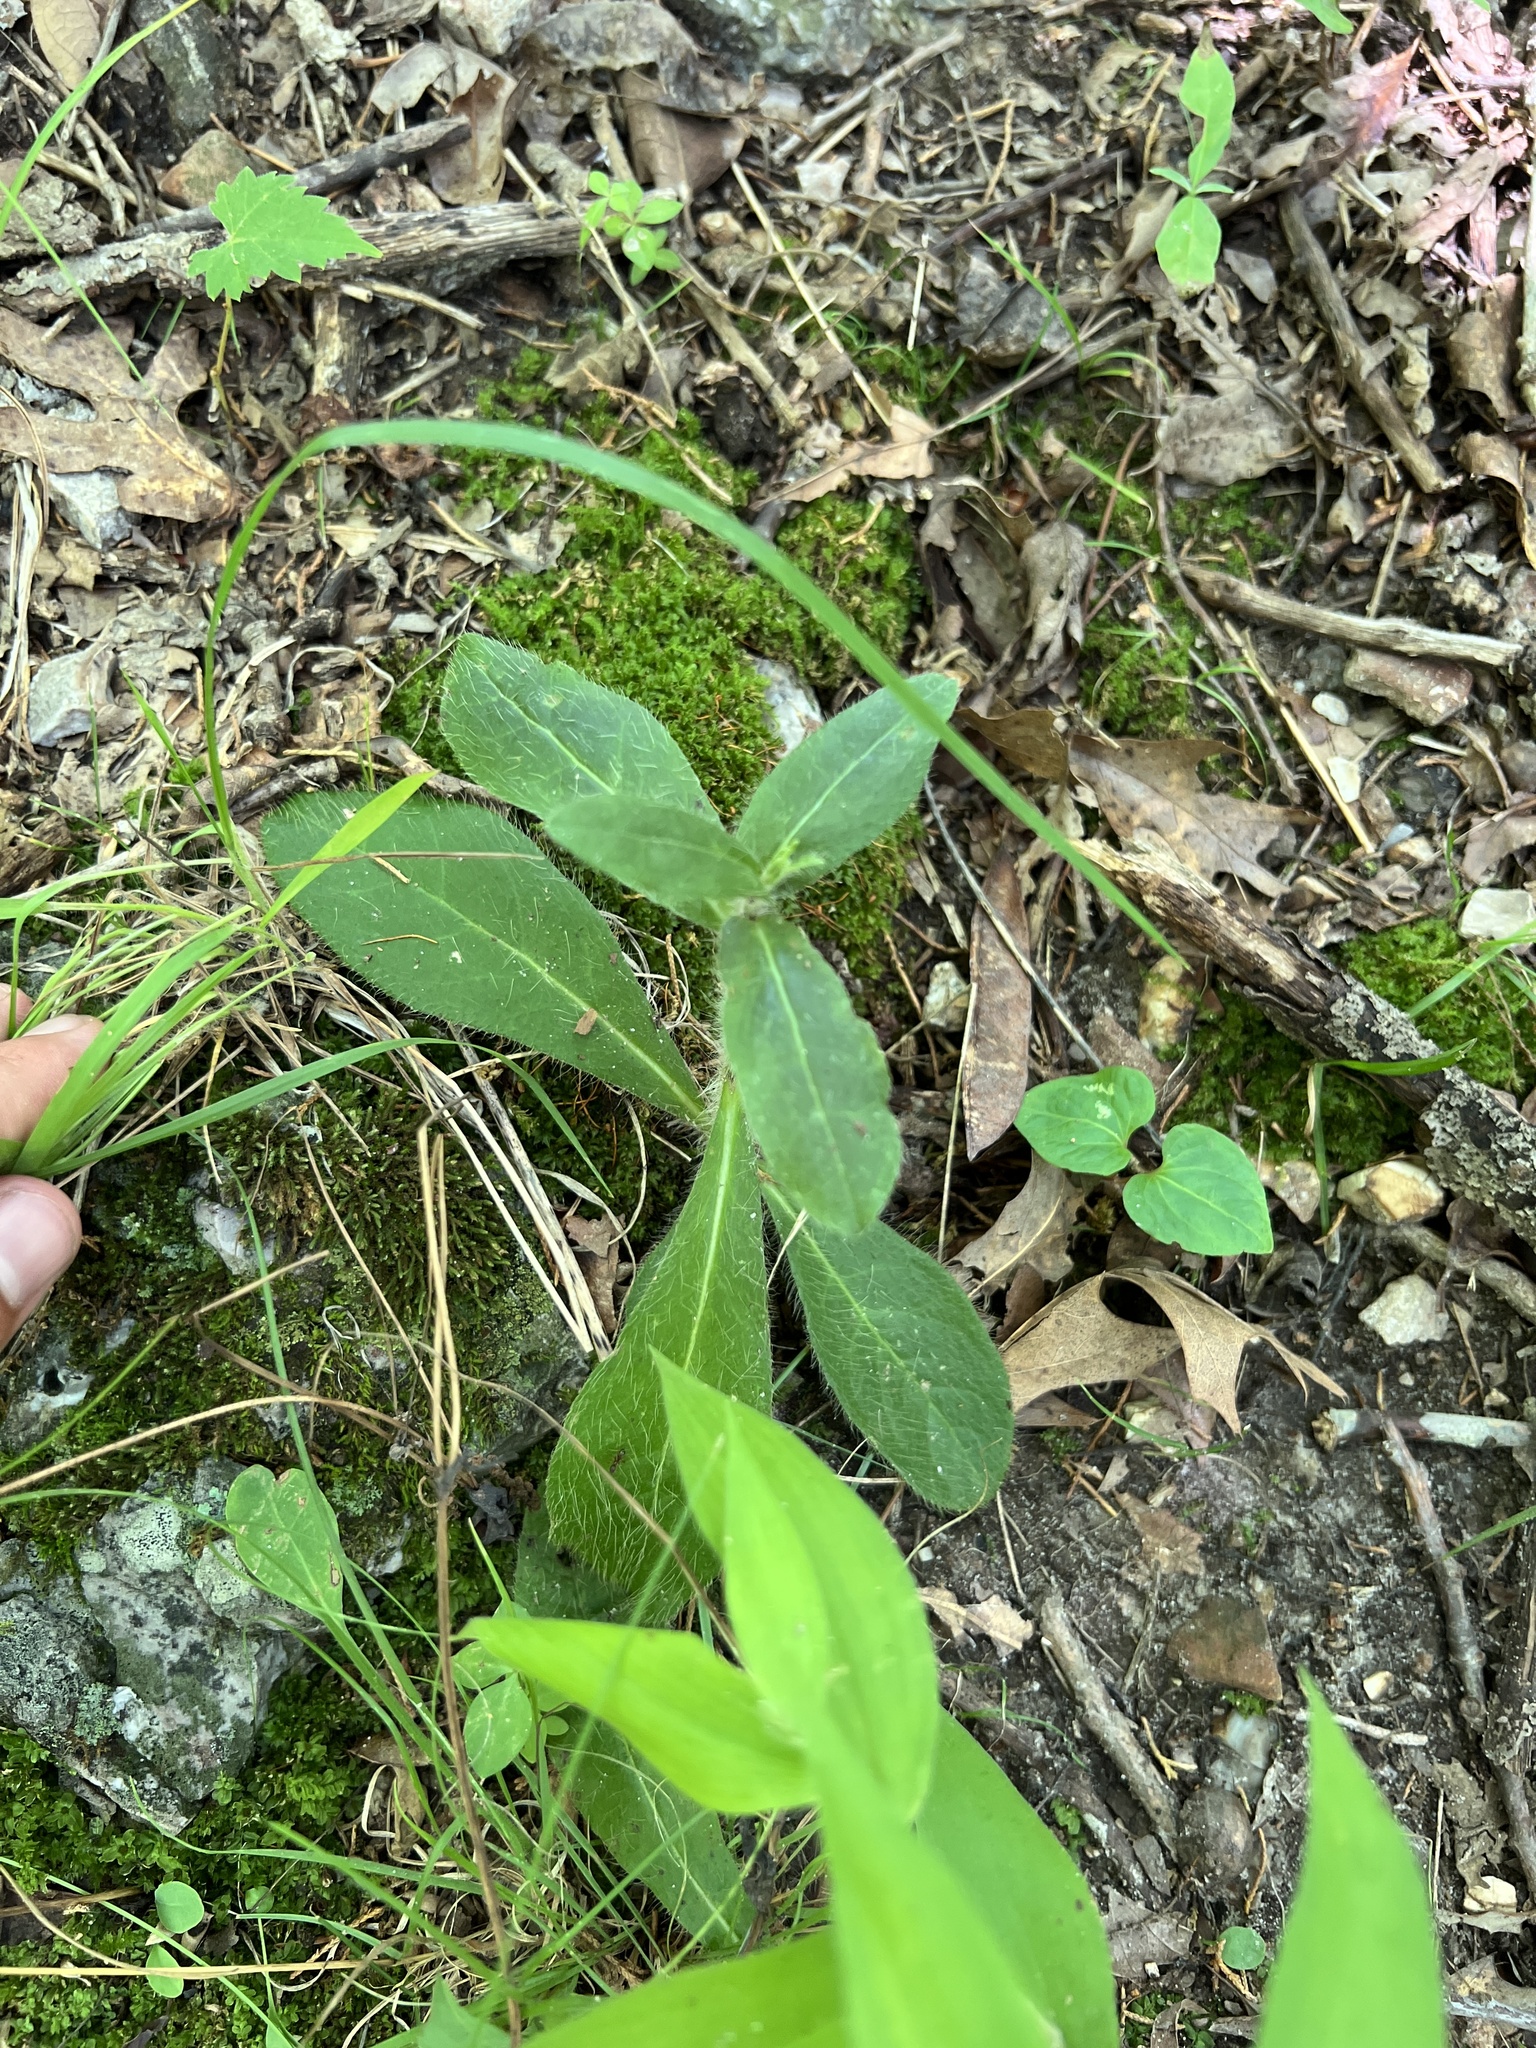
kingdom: Plantae
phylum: Tracheophyta
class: Magnoliopsida
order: Asterales
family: Asteraceae
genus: Hieracium
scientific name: Hieracium gronovii
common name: Beaked hawkweed
